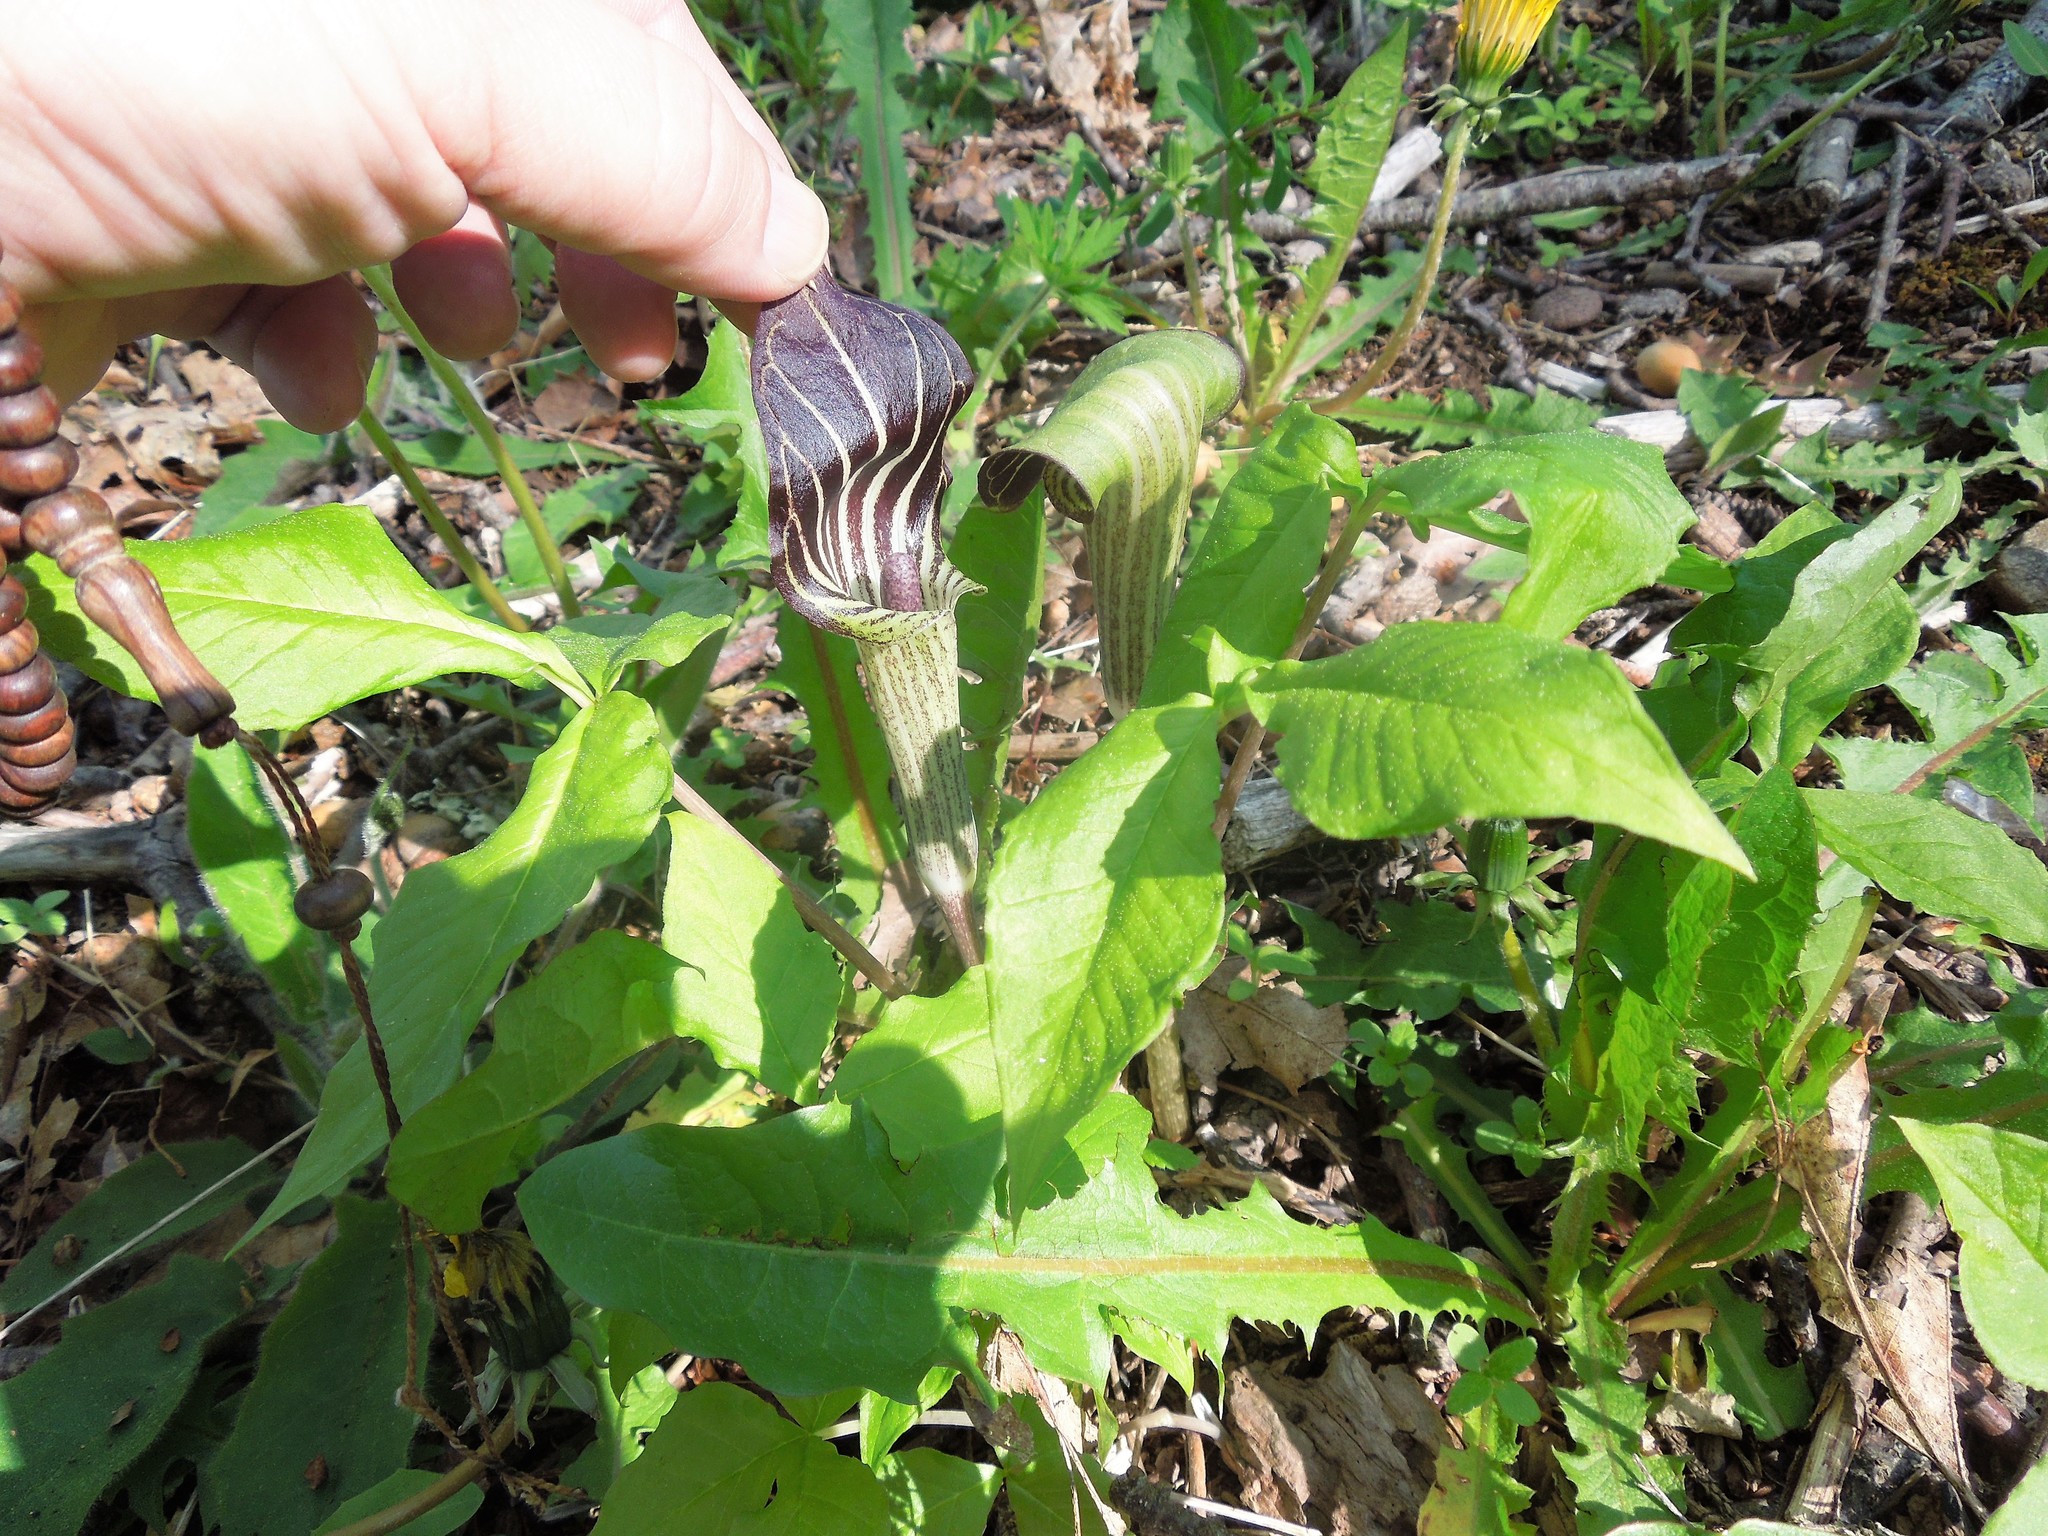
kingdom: Plantae
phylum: Tracheophyta
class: Liliopsida
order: Alismatales
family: Araceae
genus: Arisaema
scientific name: Arisaema triphyllum
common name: Jack-in-the-pulpit
